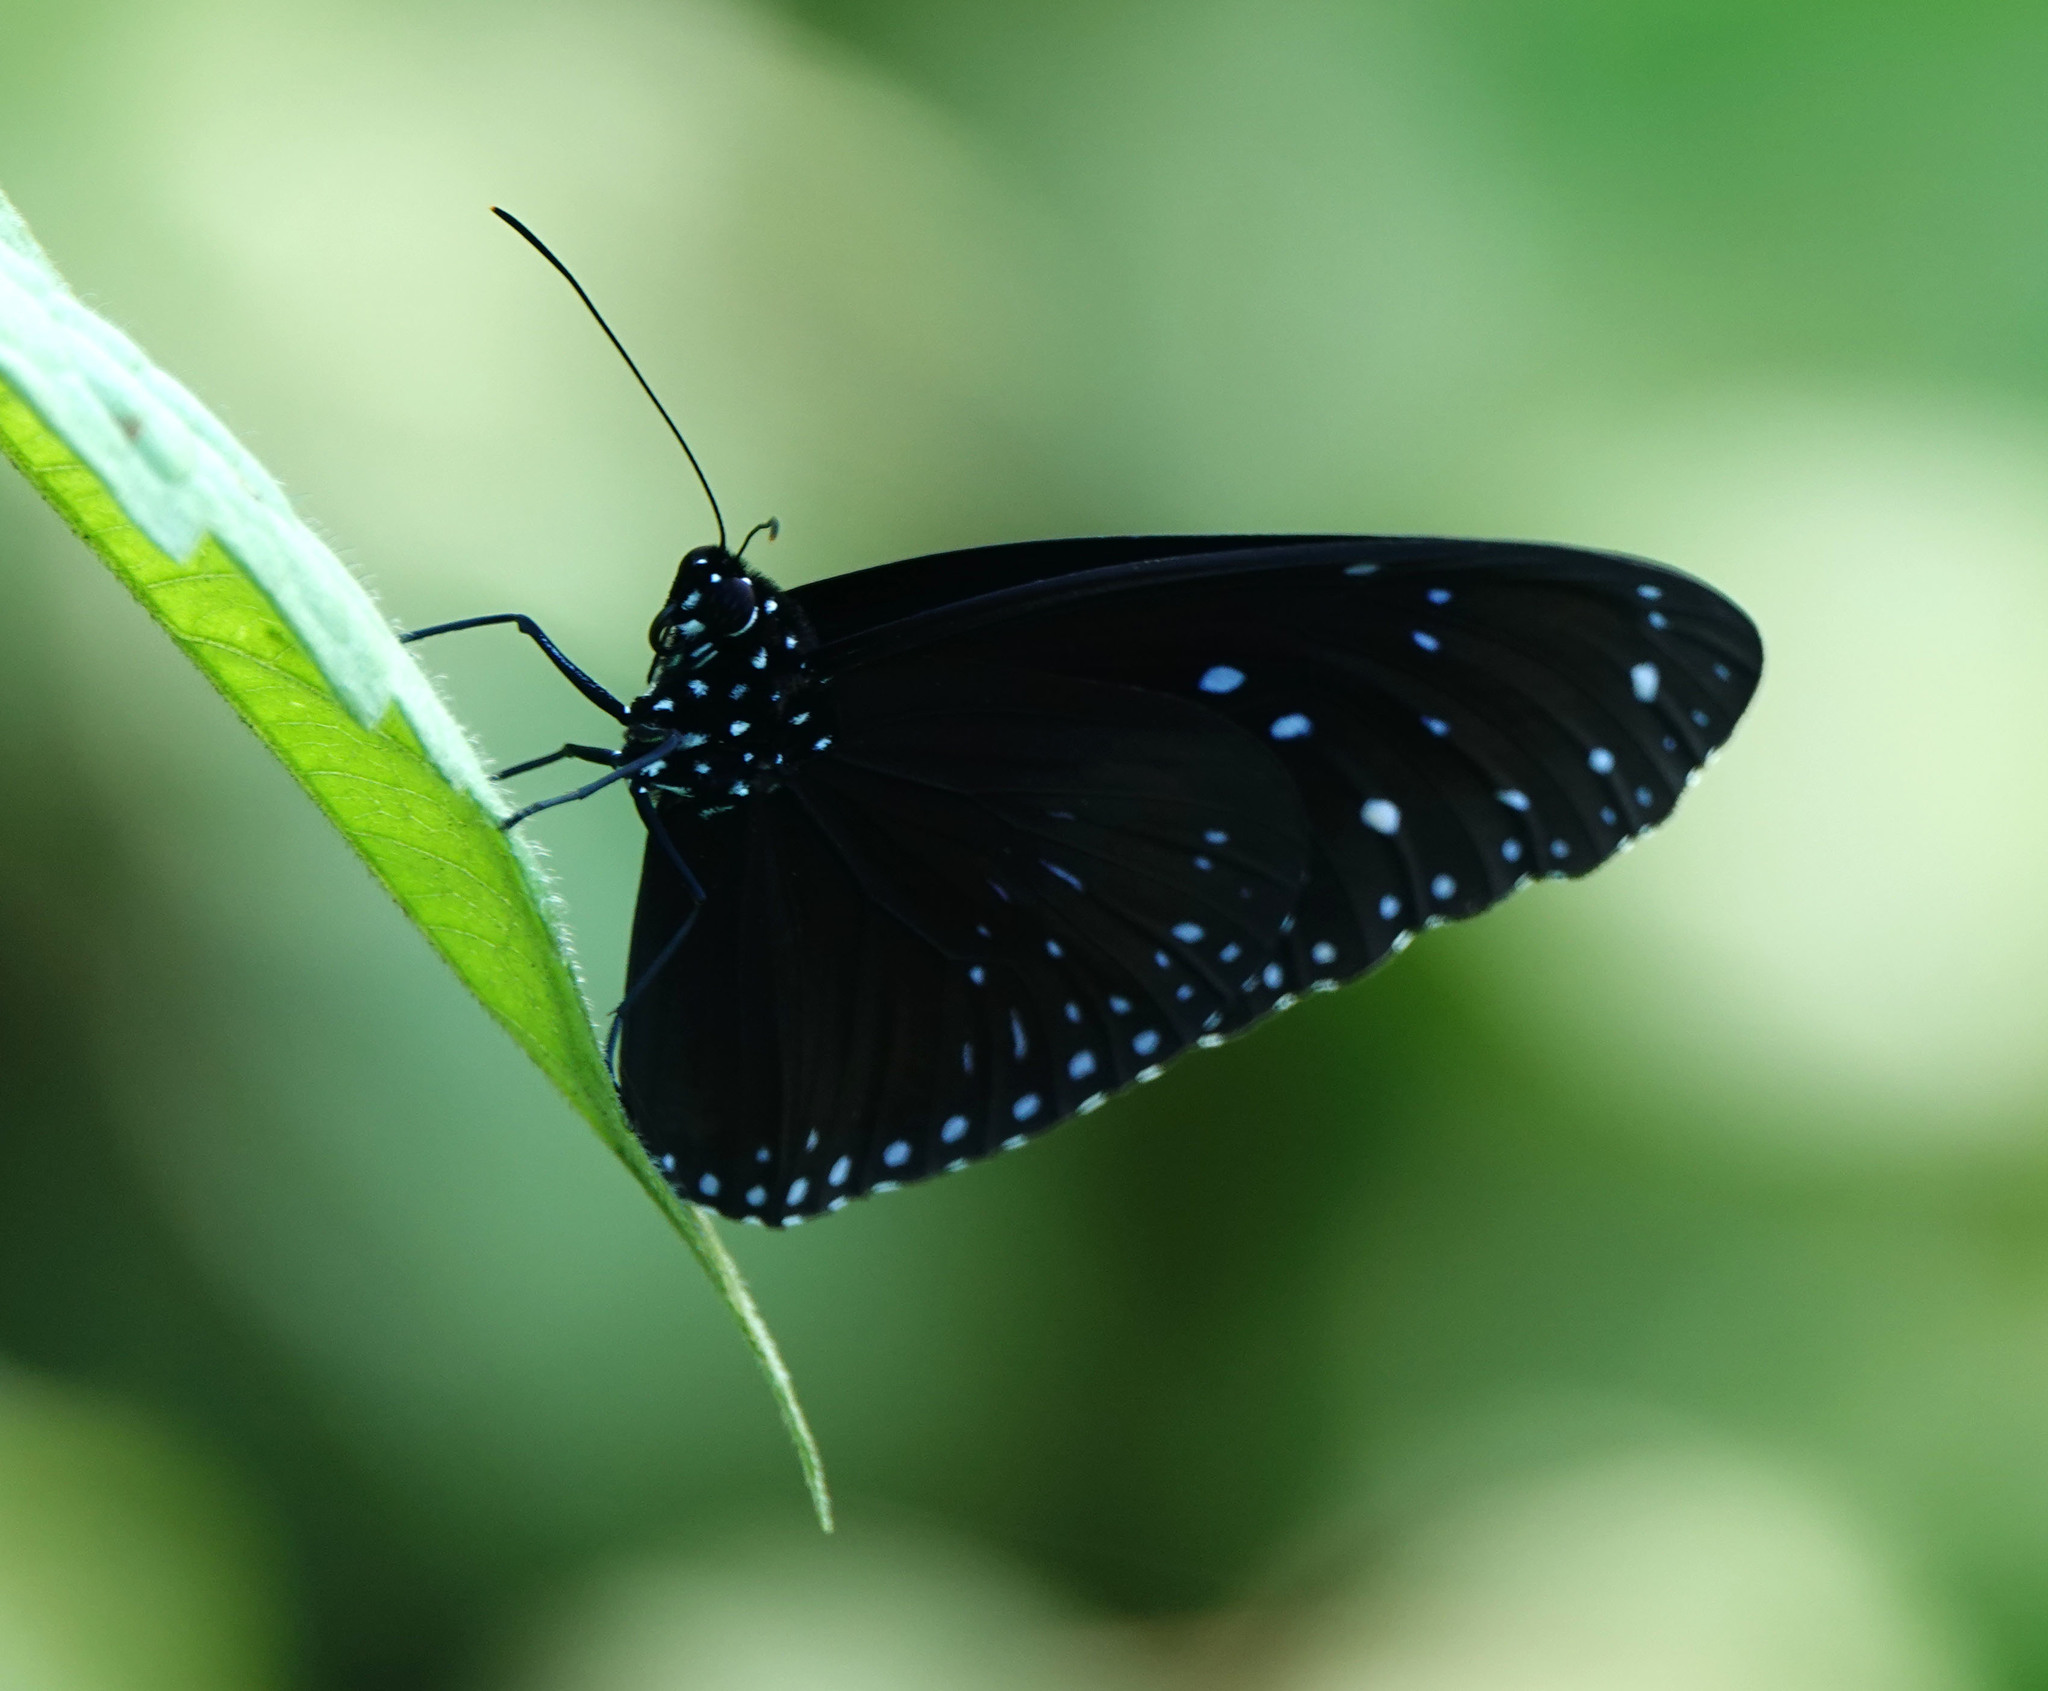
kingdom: Animalia
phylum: Arthropoda
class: Insecta
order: Lepidoptera
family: Nymphalidae
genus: Euploea
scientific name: Euploea midamus
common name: Blue-spotted crow butterfly
